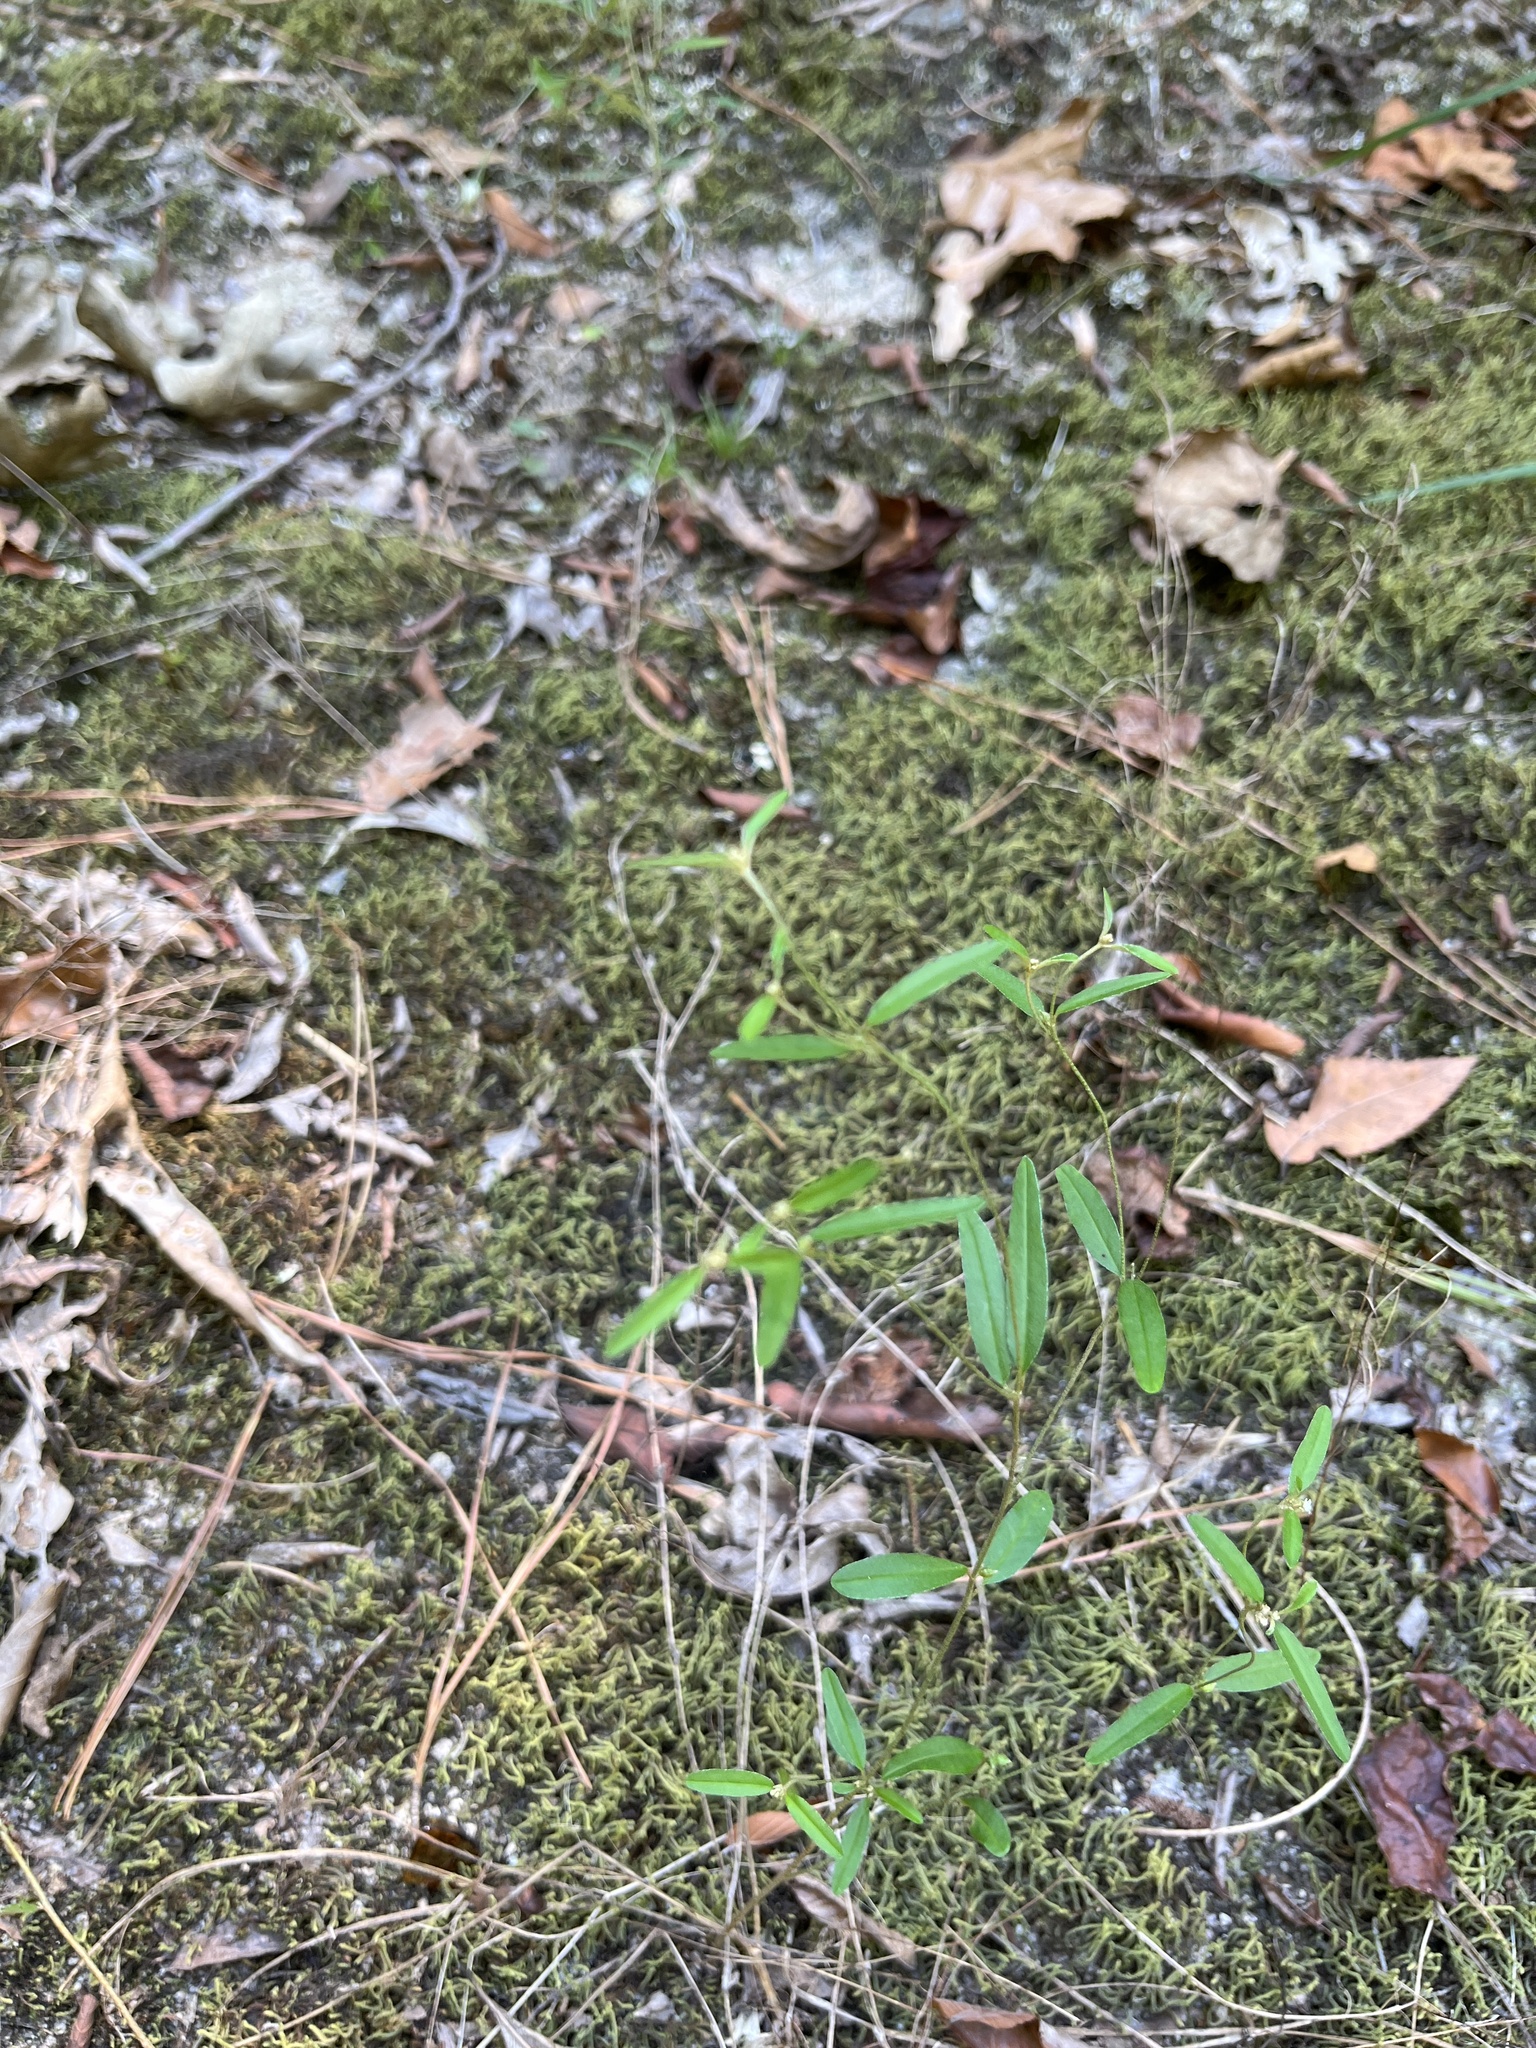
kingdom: Plantae
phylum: Tracheophyta
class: Magnoliopsida
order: Malpighiales
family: Euphorbiaceae
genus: Croton
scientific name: Croton michauxii
